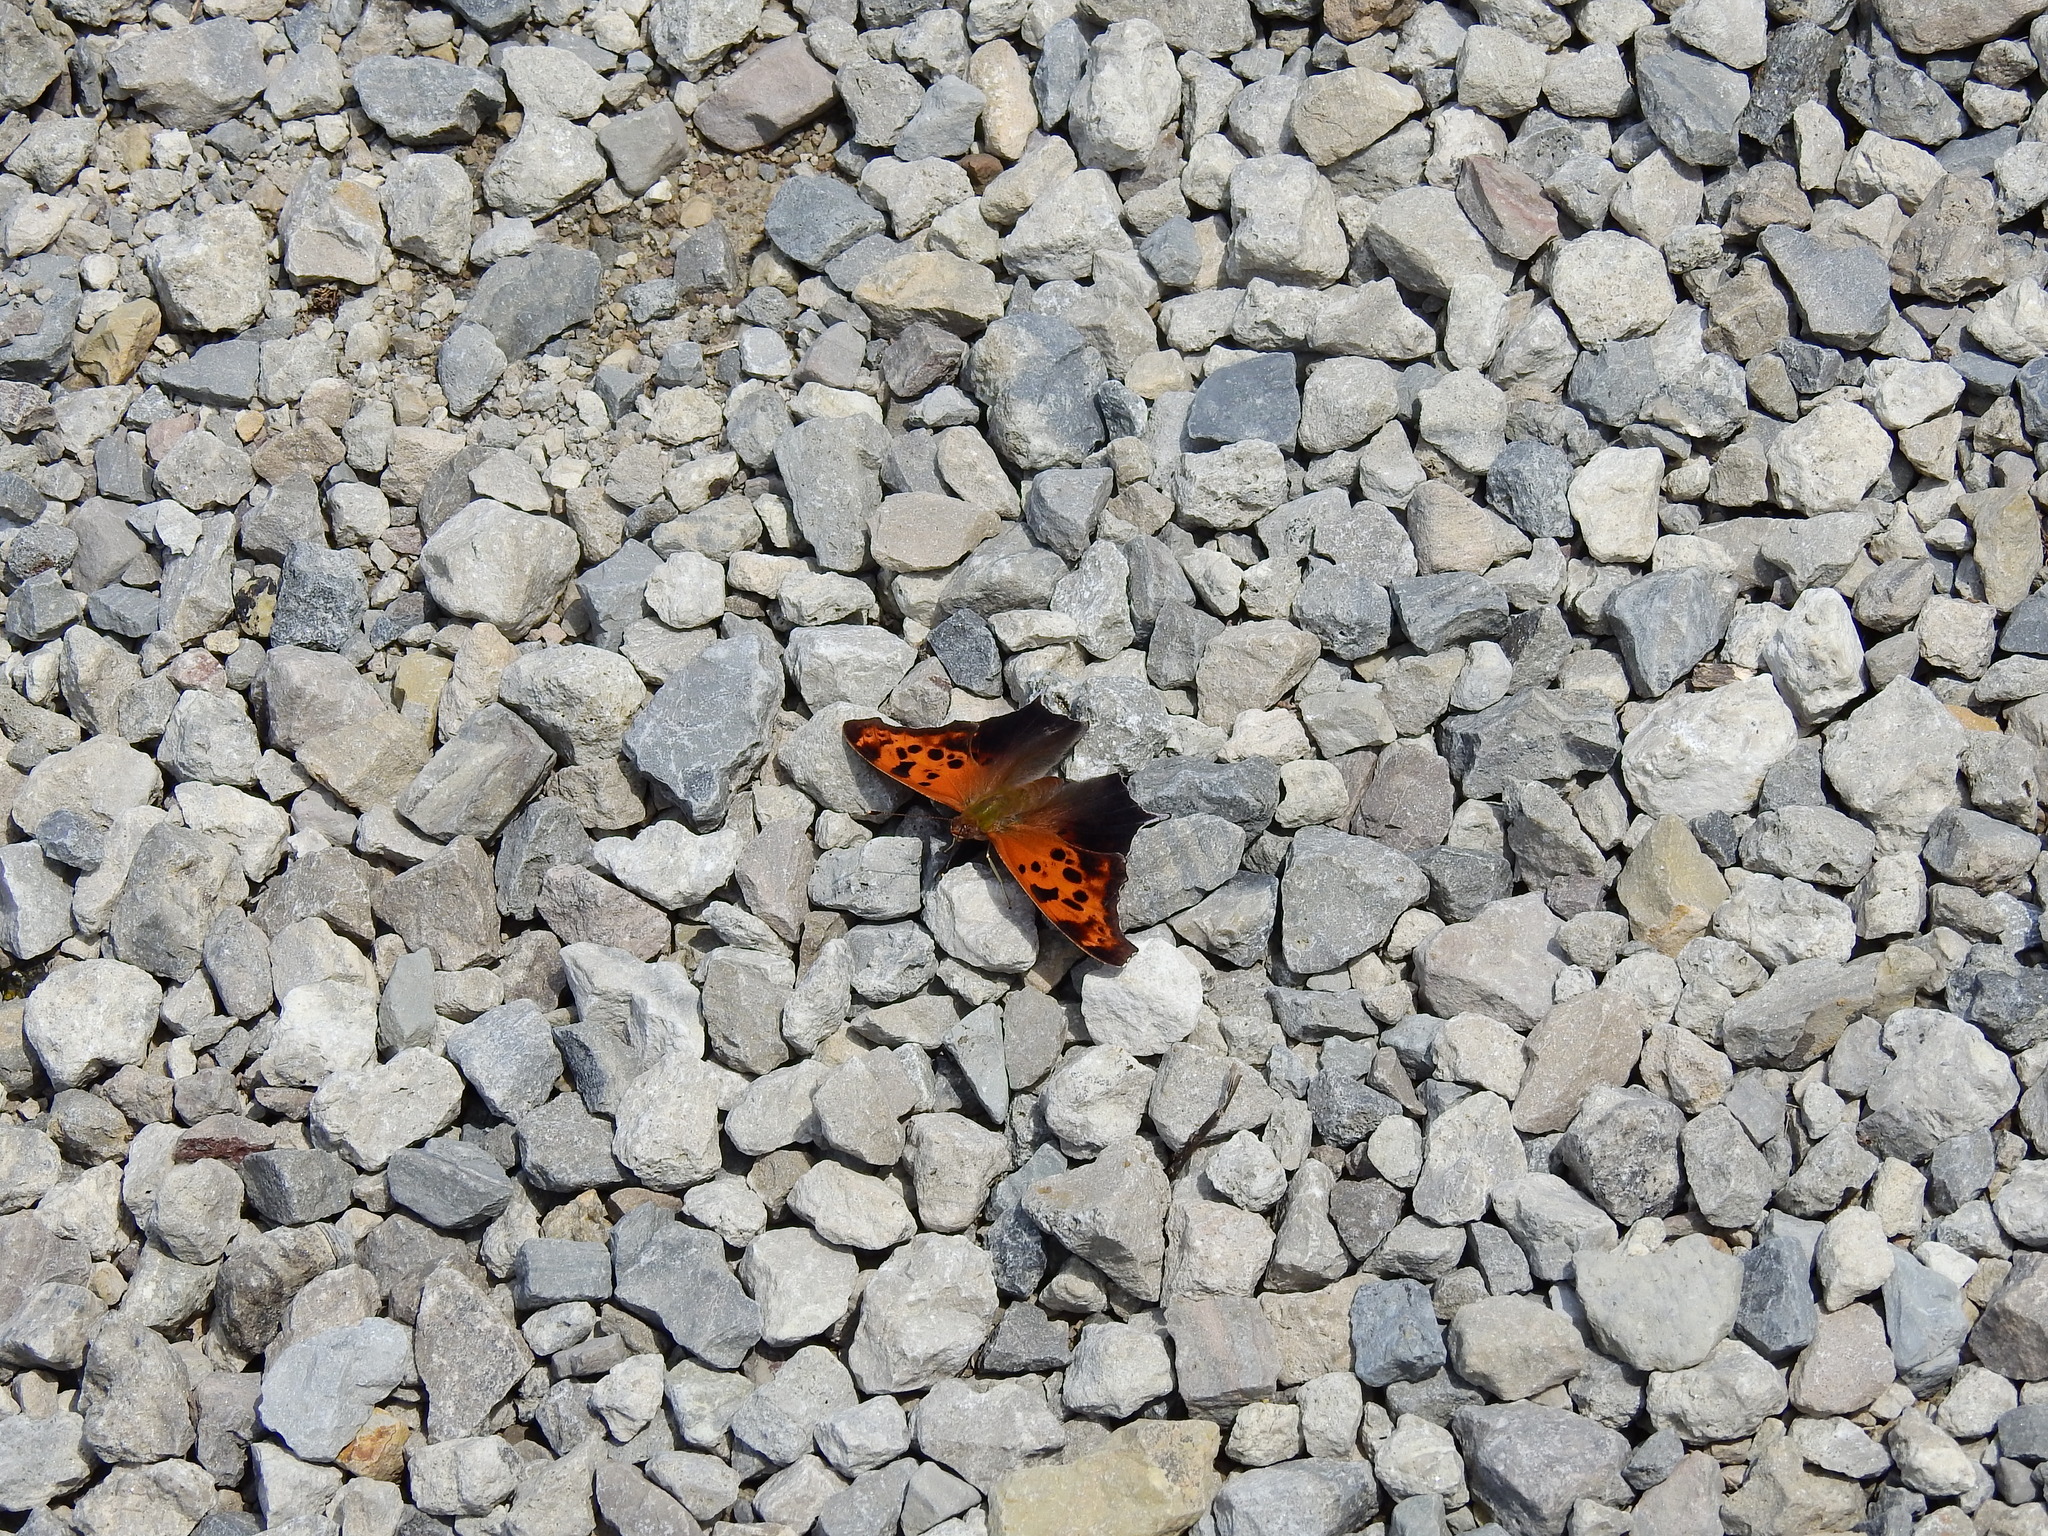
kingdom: Animalia
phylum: Arthropoda
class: Insecta
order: Lepidoptera
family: Nymphalidae
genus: Polygonia
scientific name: Polygonia interrogationis
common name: Question mark
